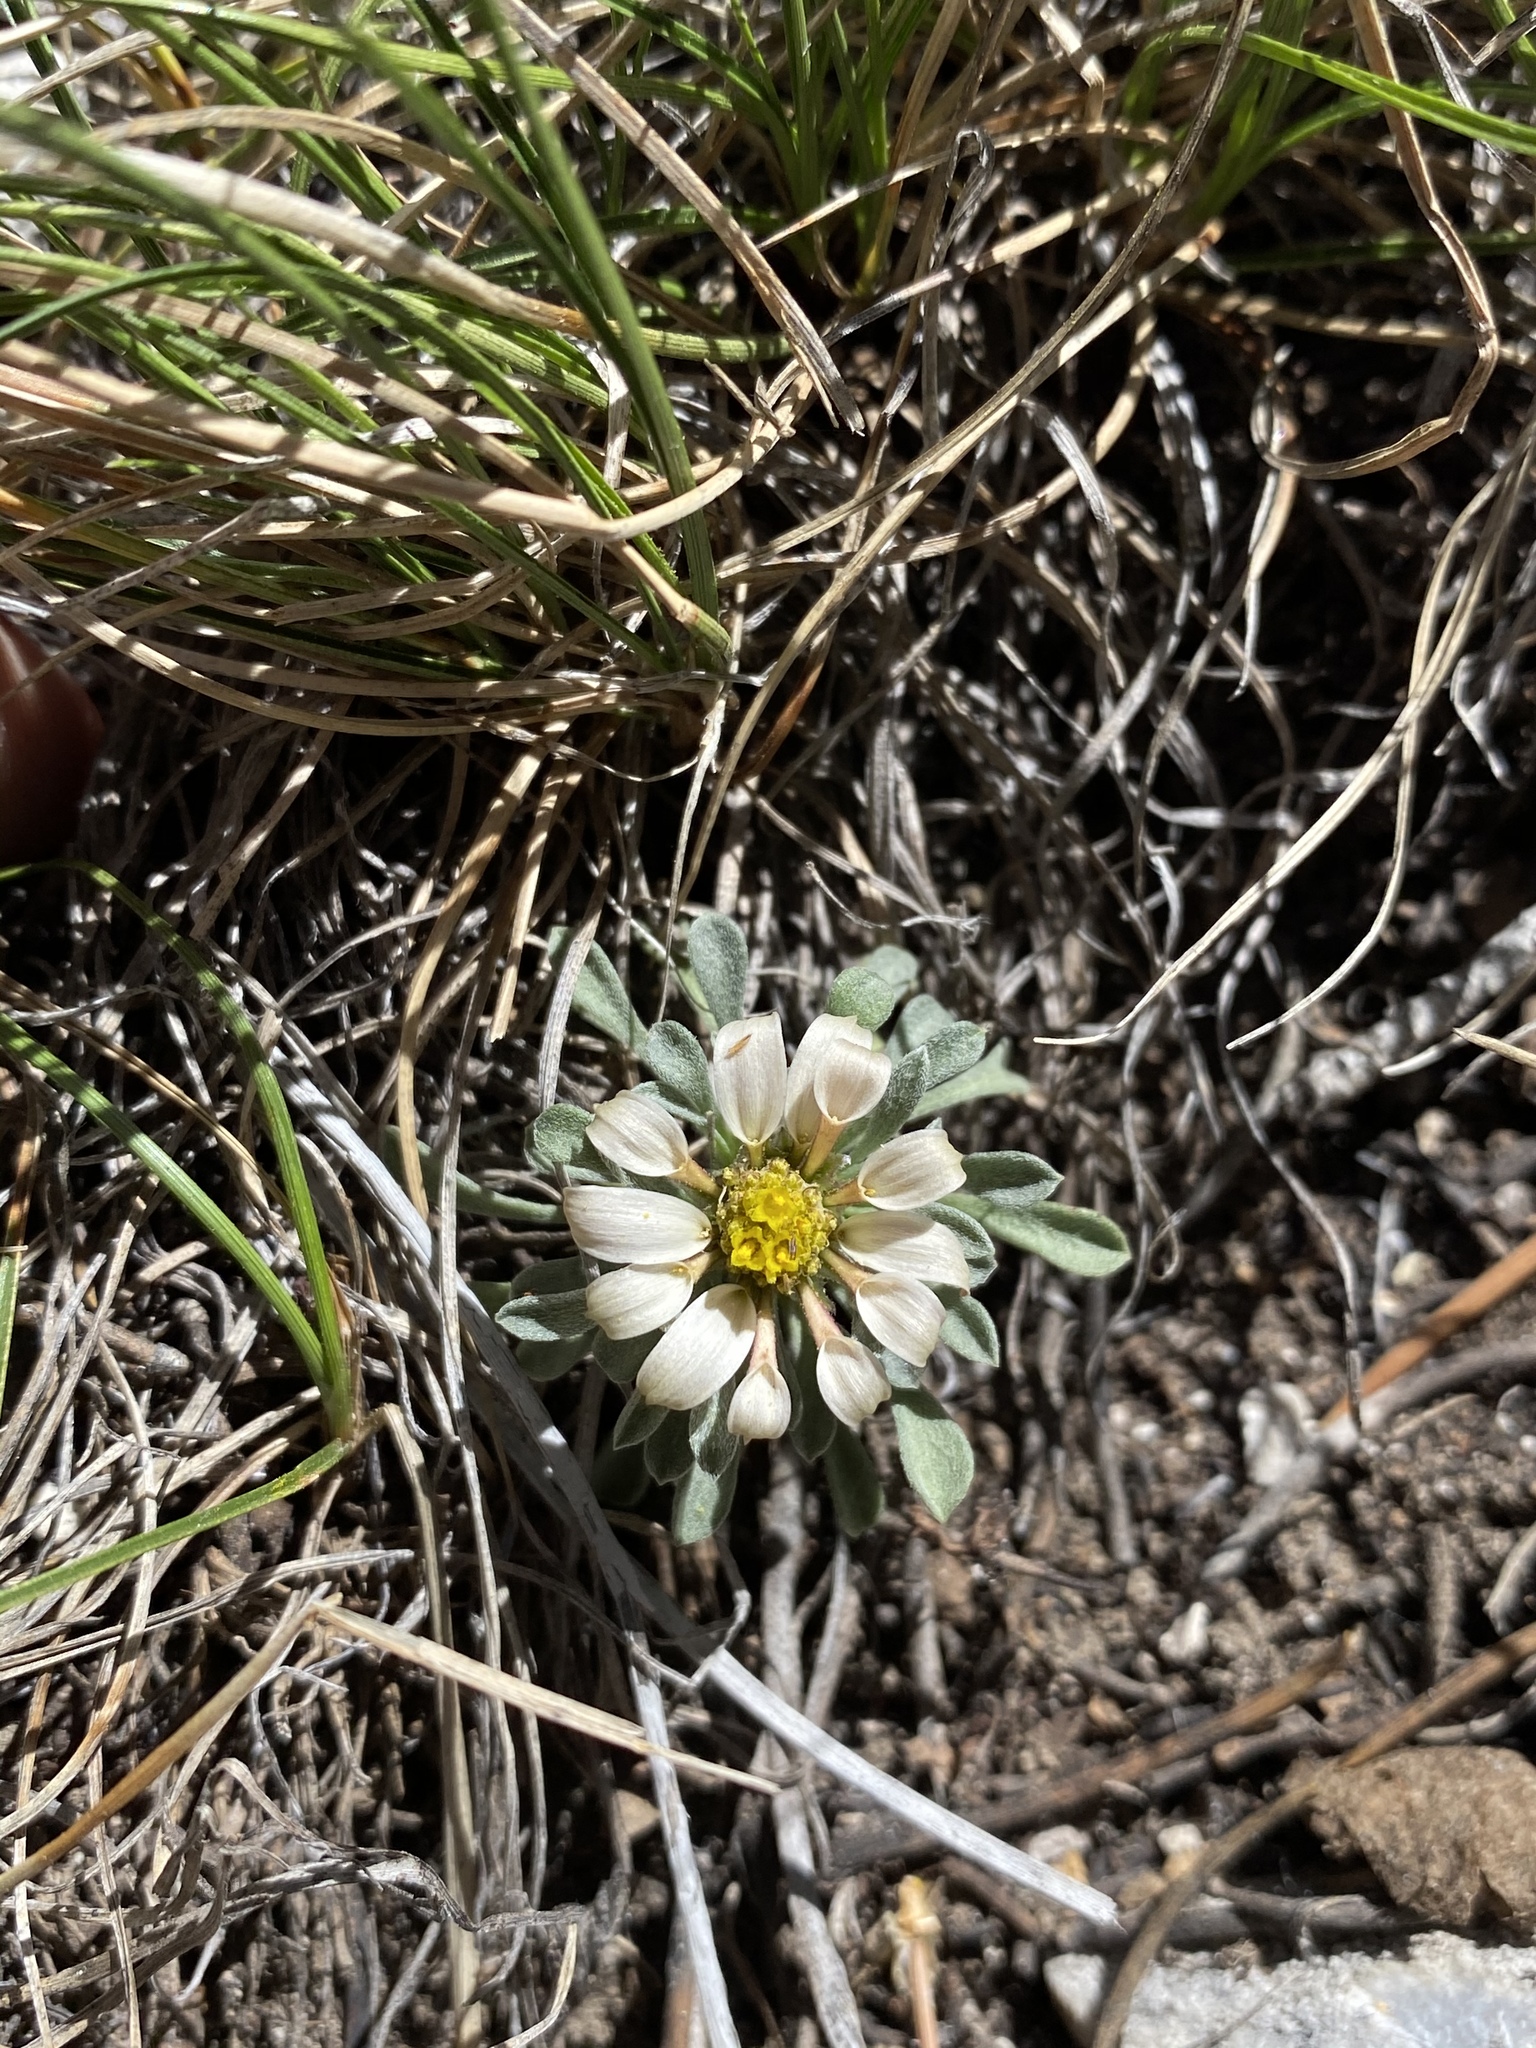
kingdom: Plantae
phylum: Tracheophyta
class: Magnoliopsida
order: Asterales
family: Asteraceae
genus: Townsendia
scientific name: Townsendia jonesii
